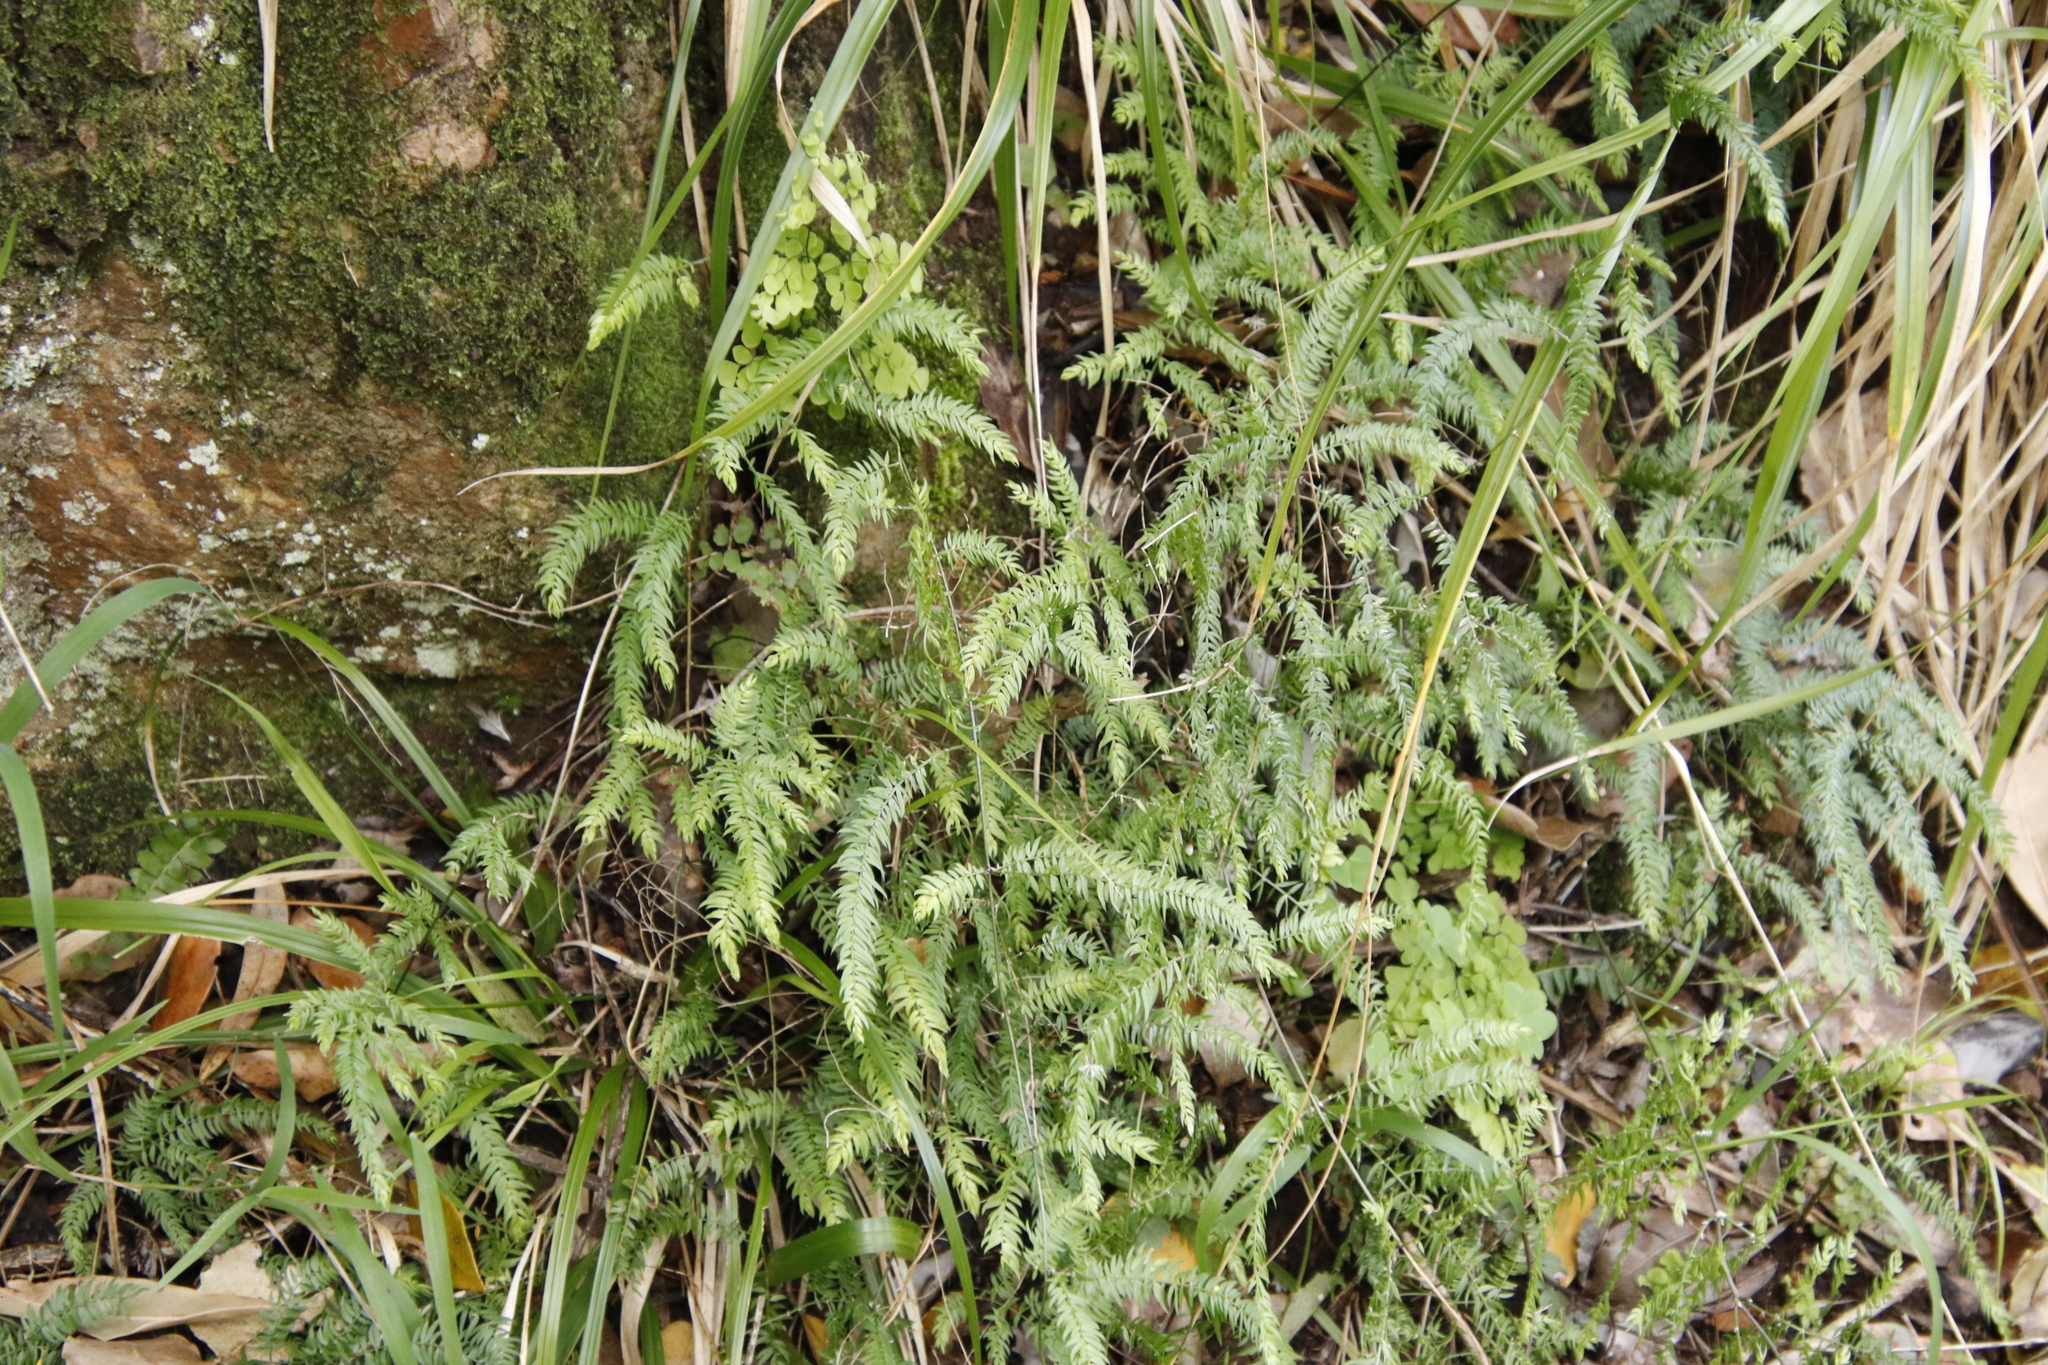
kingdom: Plantae
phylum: Tracheophyta
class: Liliopsida
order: Asparagales
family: Asparagaceae
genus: Asparagus
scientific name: Asparagus scandens
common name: Asparagus-fern
